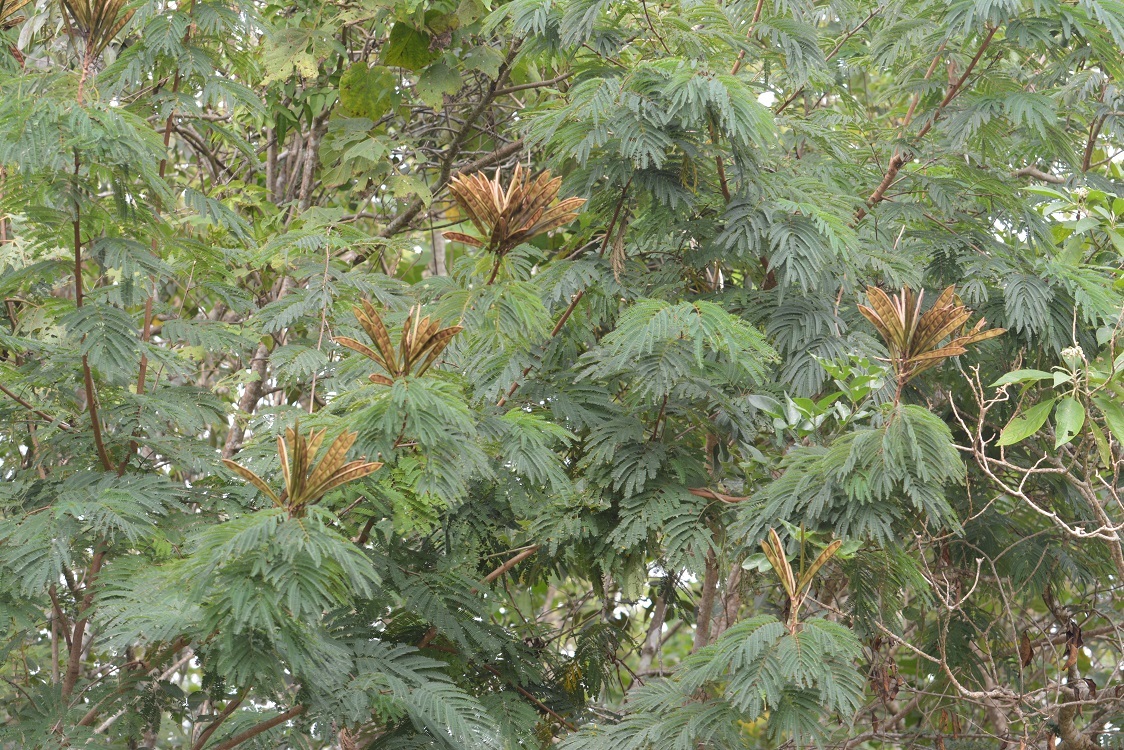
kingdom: Plantae
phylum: Tracheophyta
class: Magnoliopsida
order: Fabales
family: Fabaceae
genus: Calliandra
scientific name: Calliandra houstoniana
